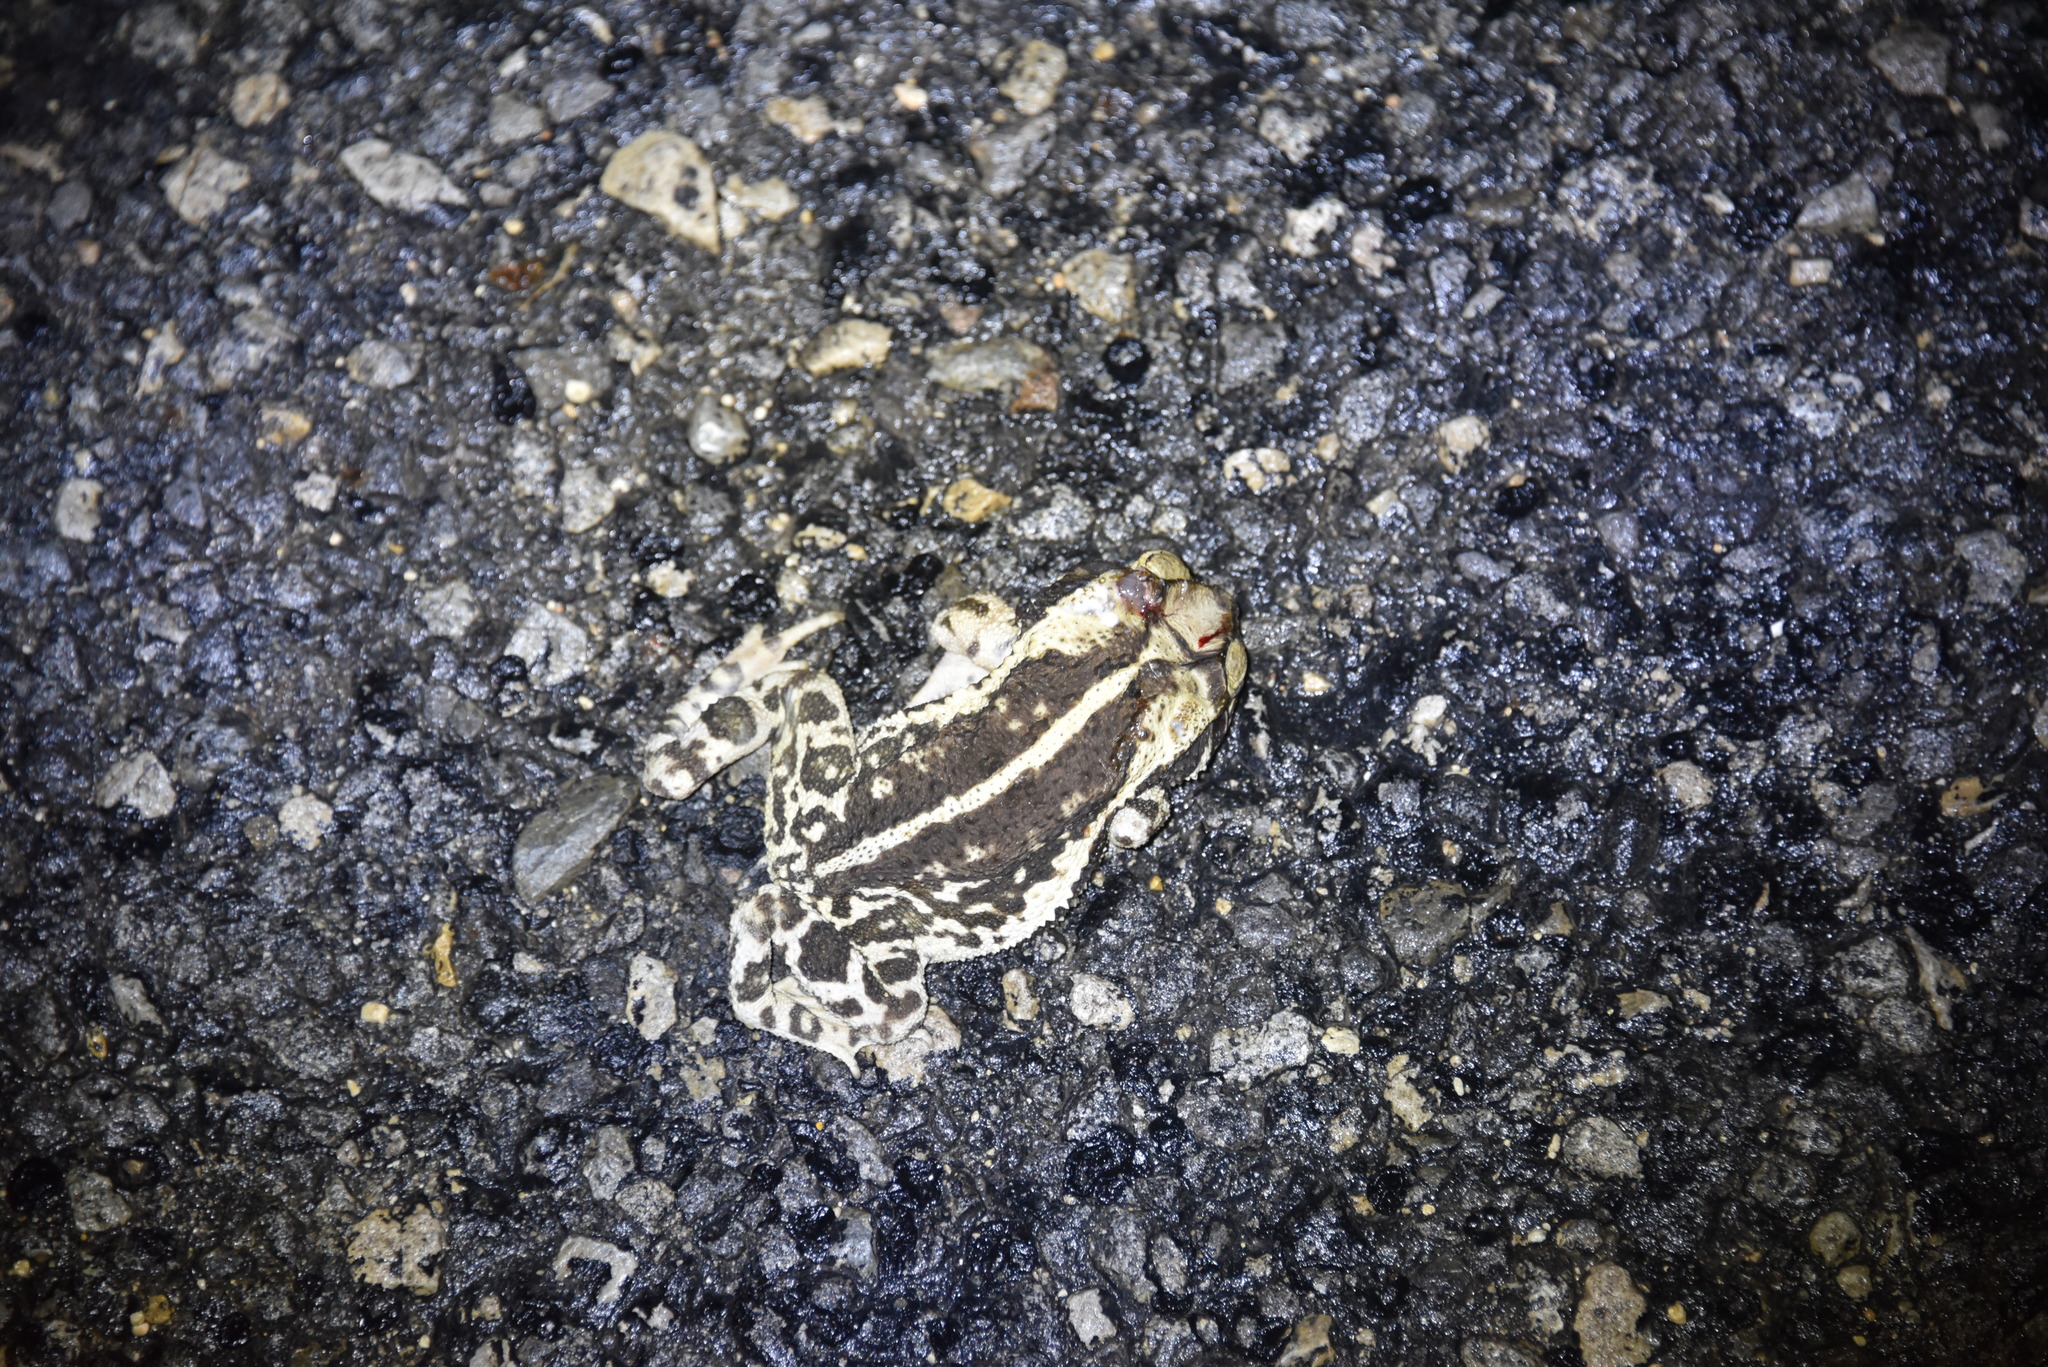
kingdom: Animalia
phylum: Chordata
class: Amphibia
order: Anura
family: Bufonidae
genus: Incilius
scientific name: Incilius nebulifer
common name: Gulf coast toad
